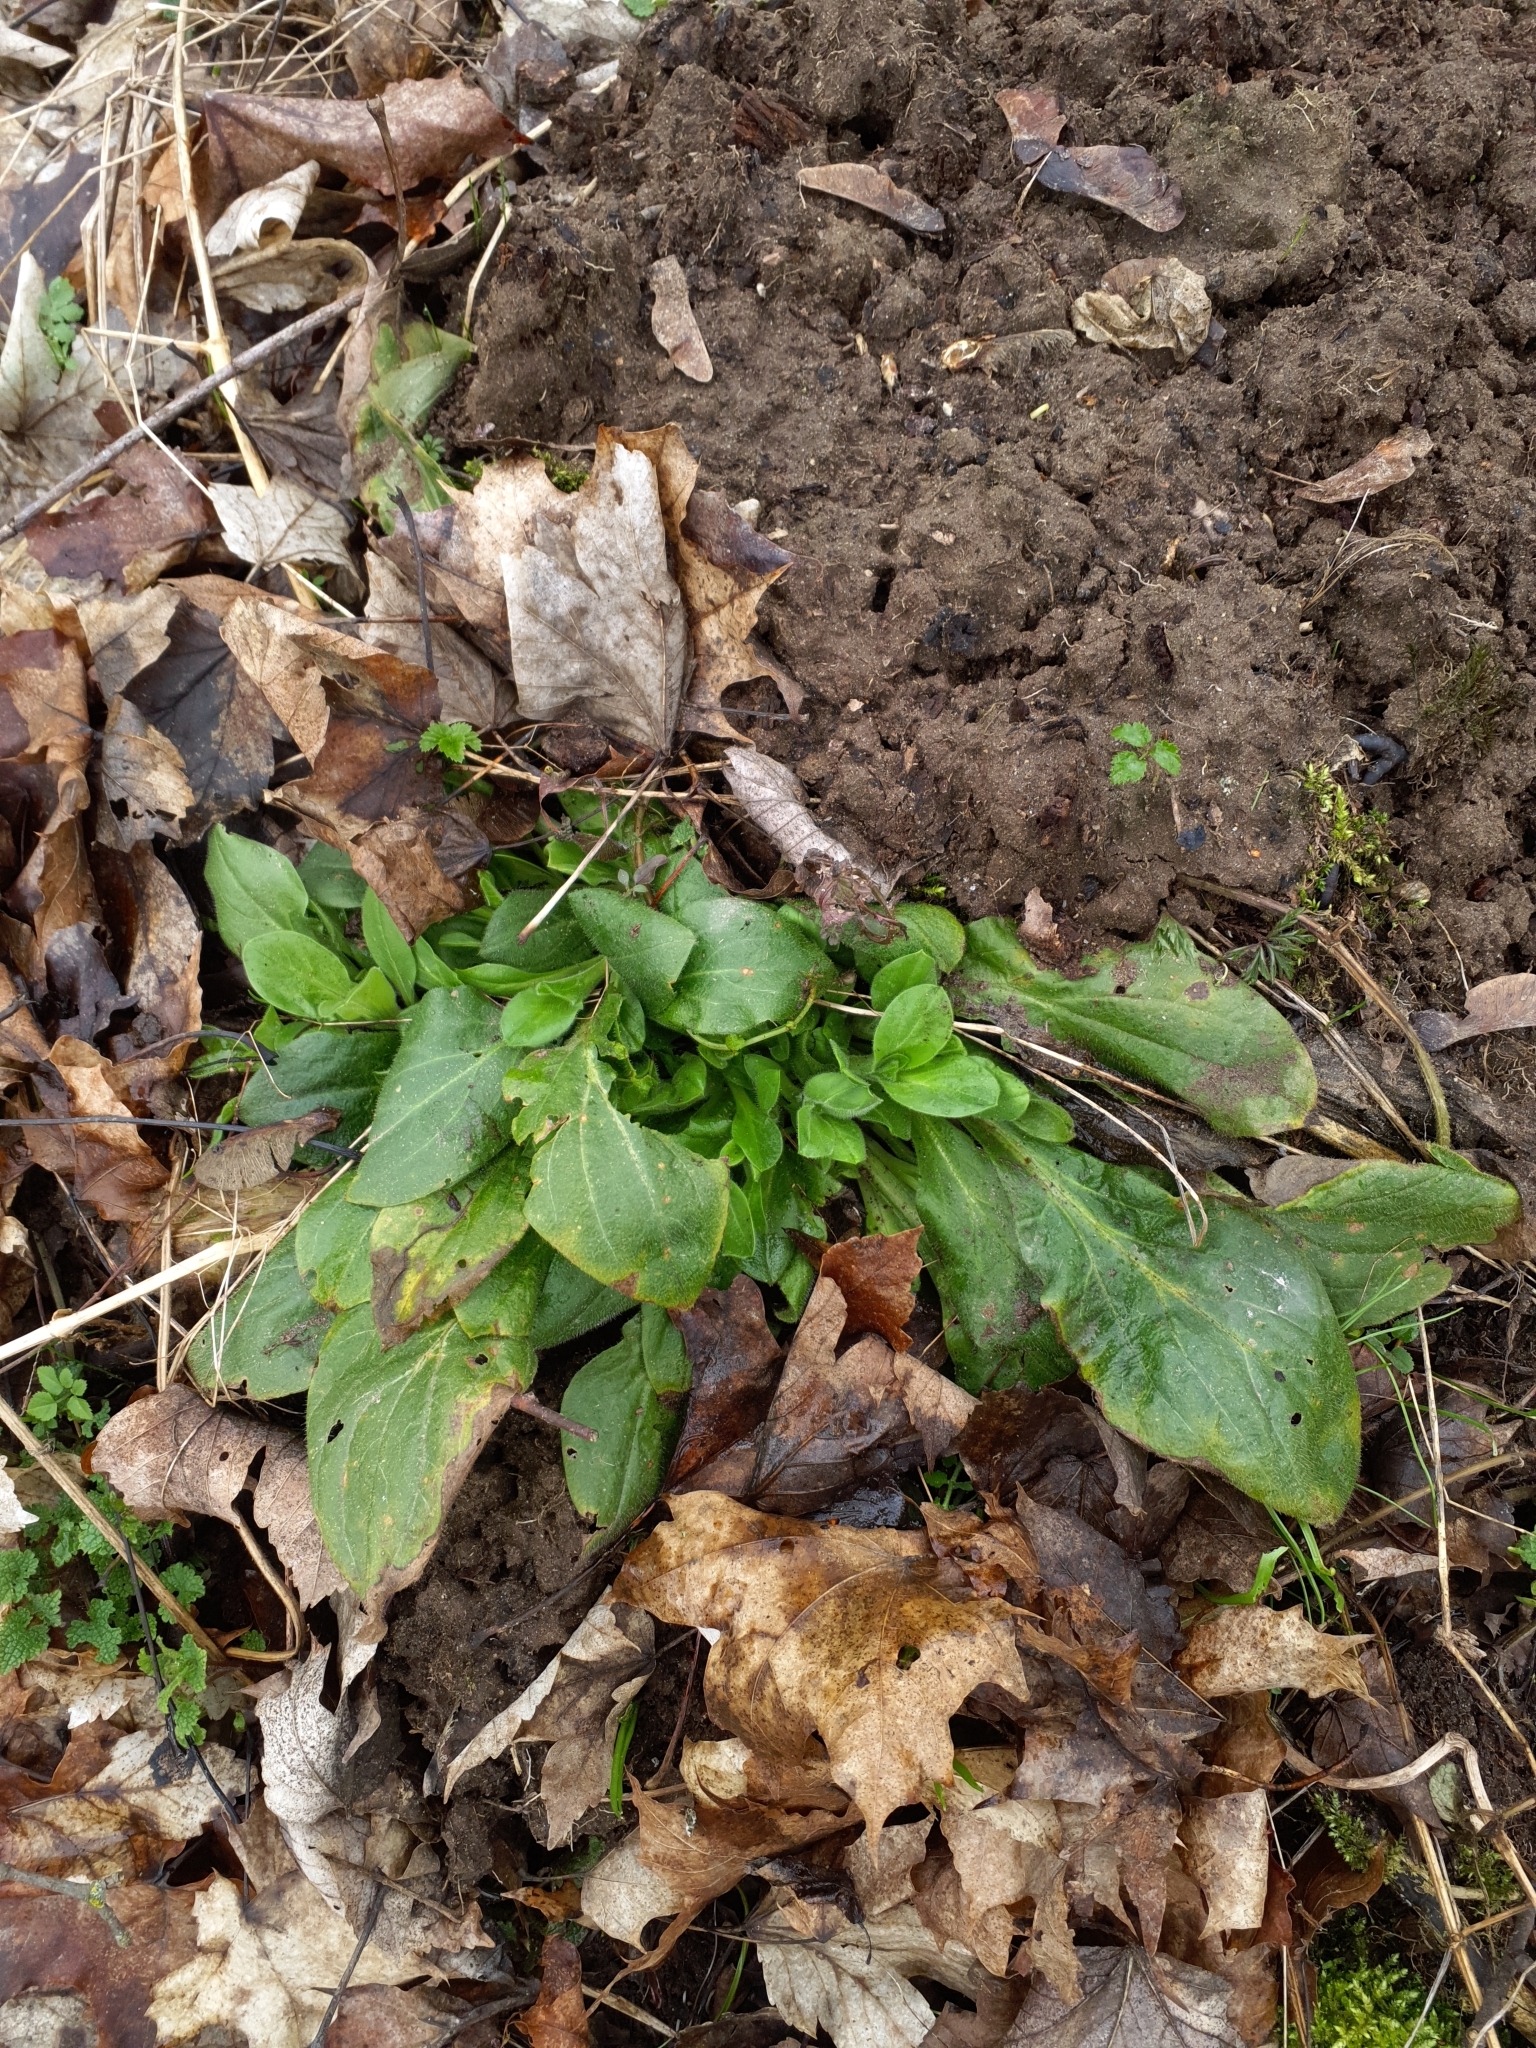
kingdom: Plantae
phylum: Tracheophyta
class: Magnoliopsida
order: Caryophyllales
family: Caryophyllaceae
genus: Silene
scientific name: Silene dioica
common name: Red campion
